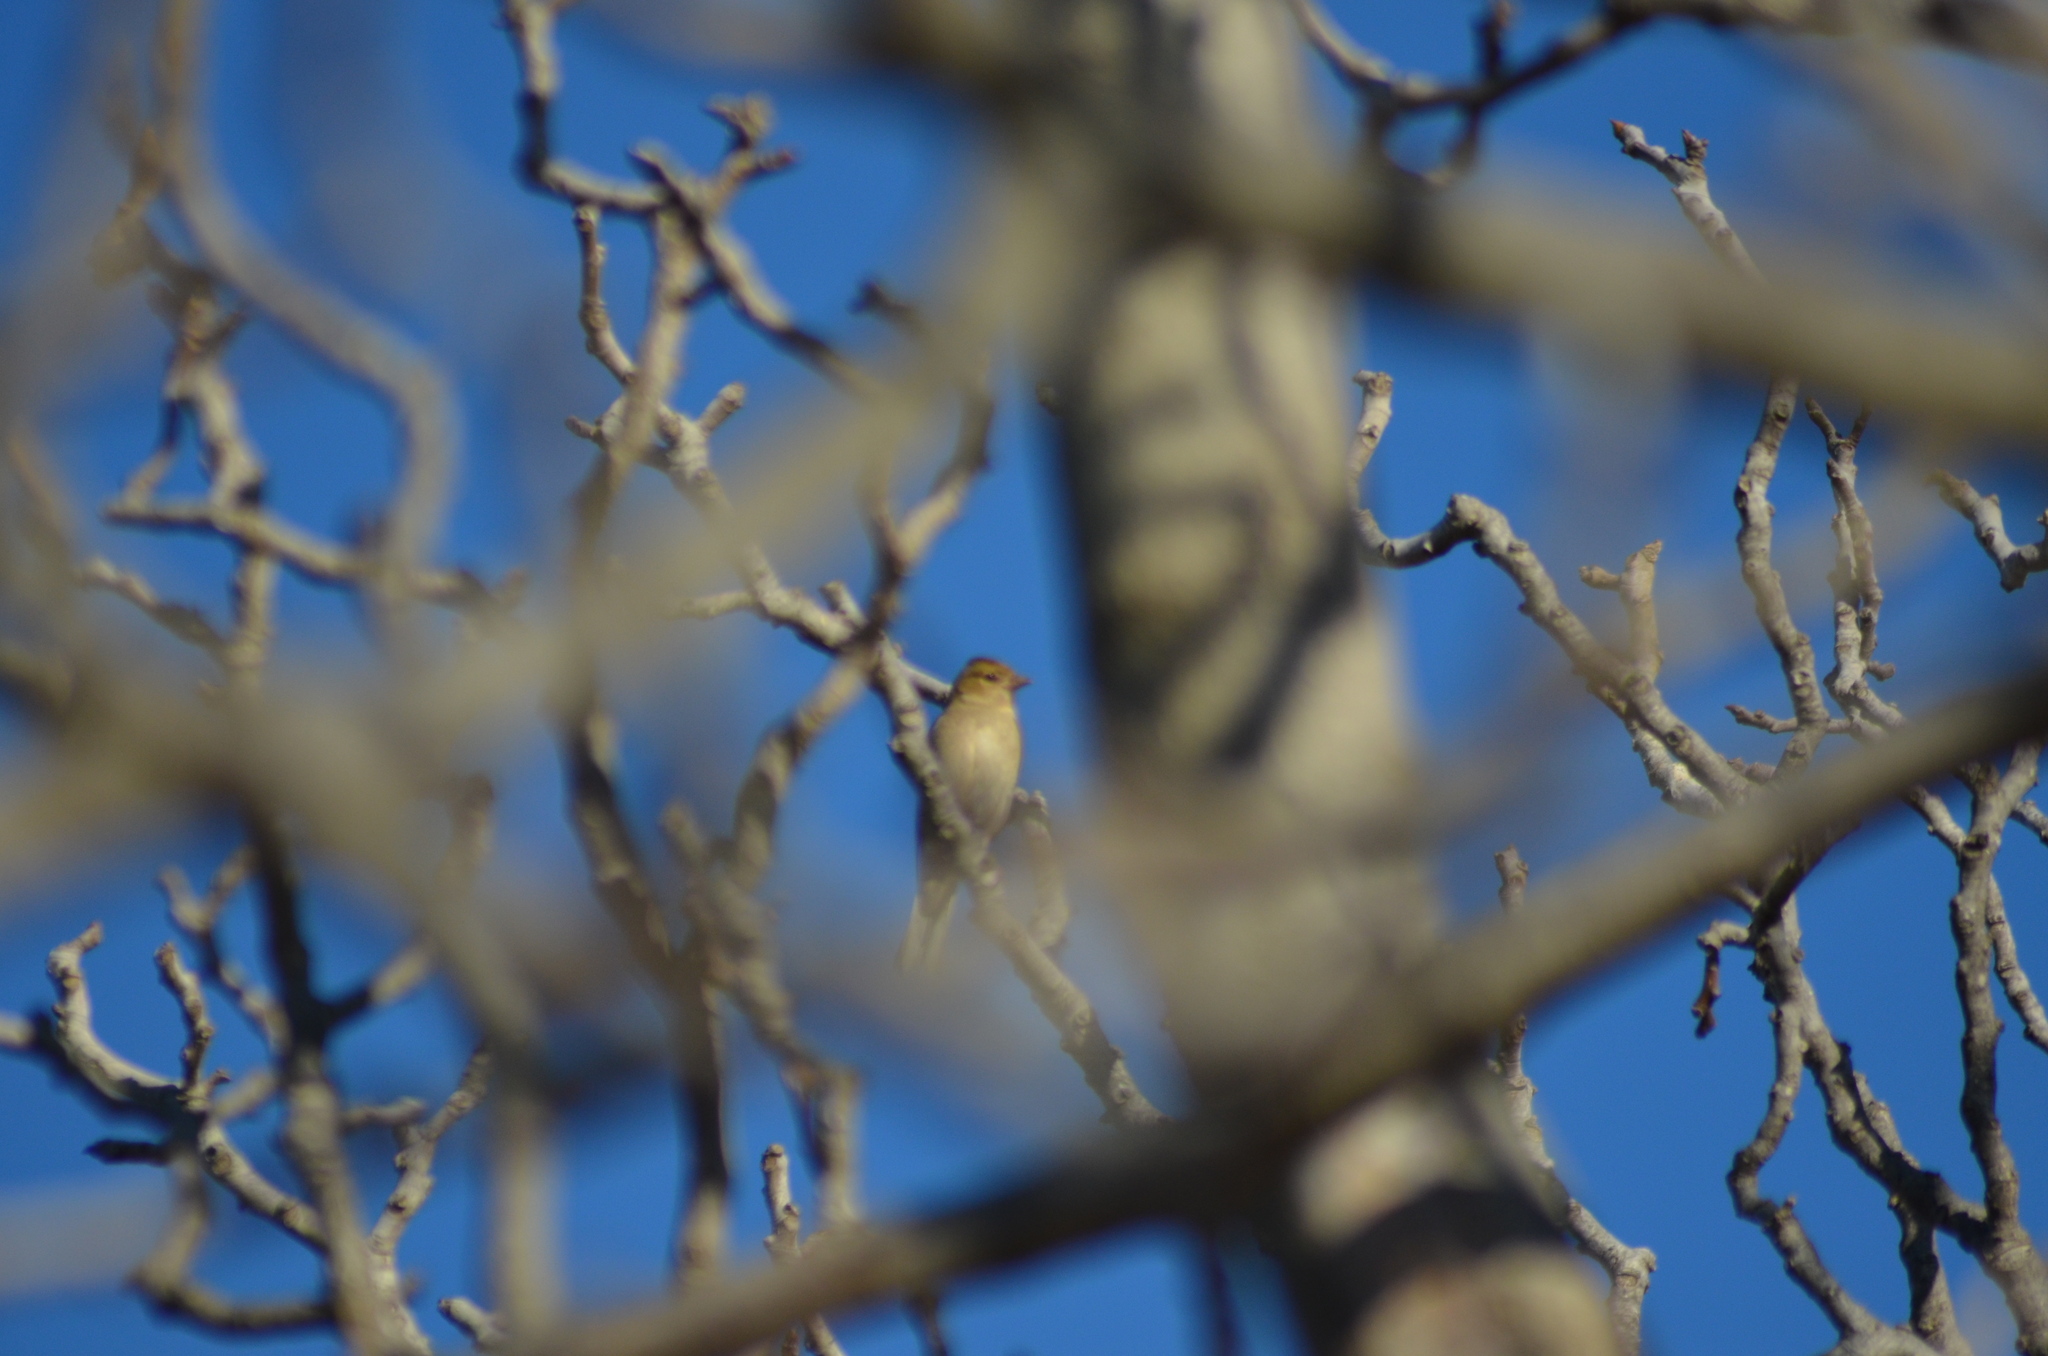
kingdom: Animalia
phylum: Chordata
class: Aves
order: Passeriformes
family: Fringillidae
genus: Fringilla
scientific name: Fringilla coelebs
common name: Common chaffinch
